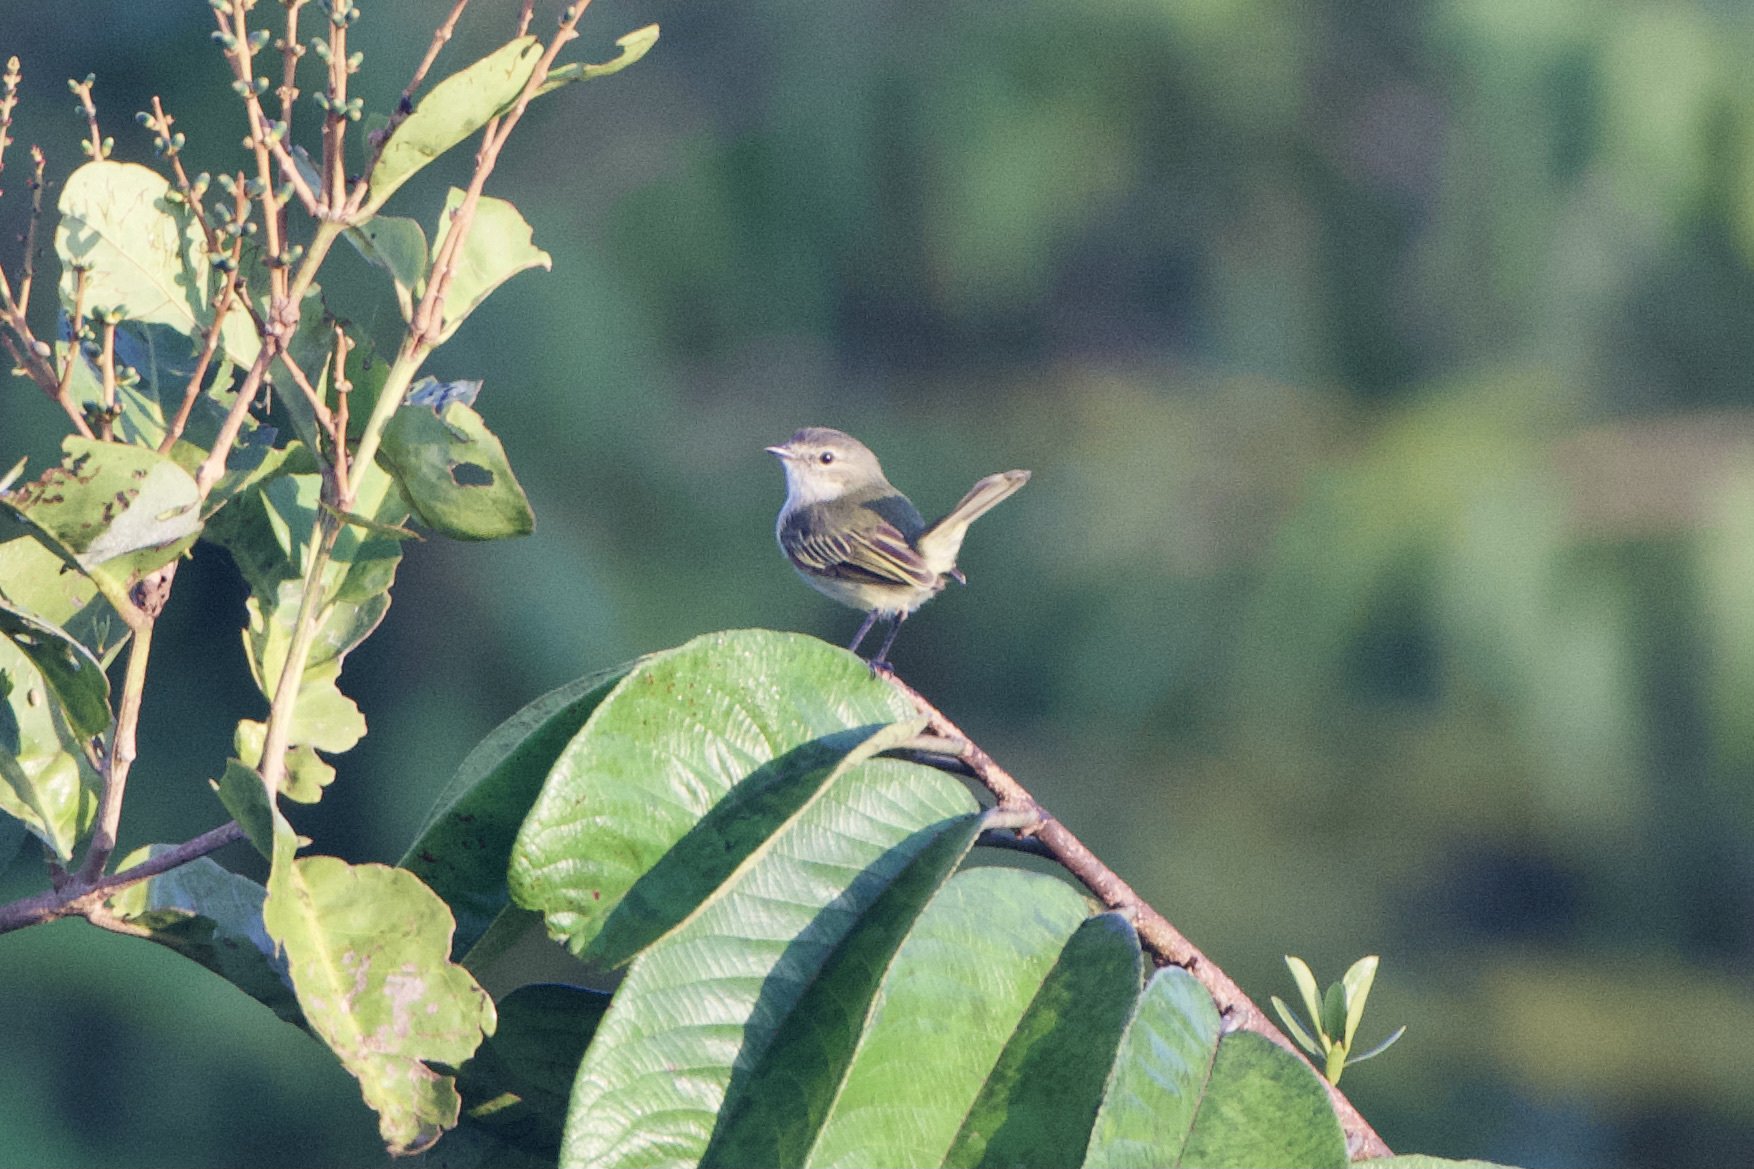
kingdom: Animalia
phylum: Chordata
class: Aves
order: Passeriformes
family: Tyrannidae
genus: Zimmerius
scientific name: Zimmerius vilissimus
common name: Paltry tyrannulet
